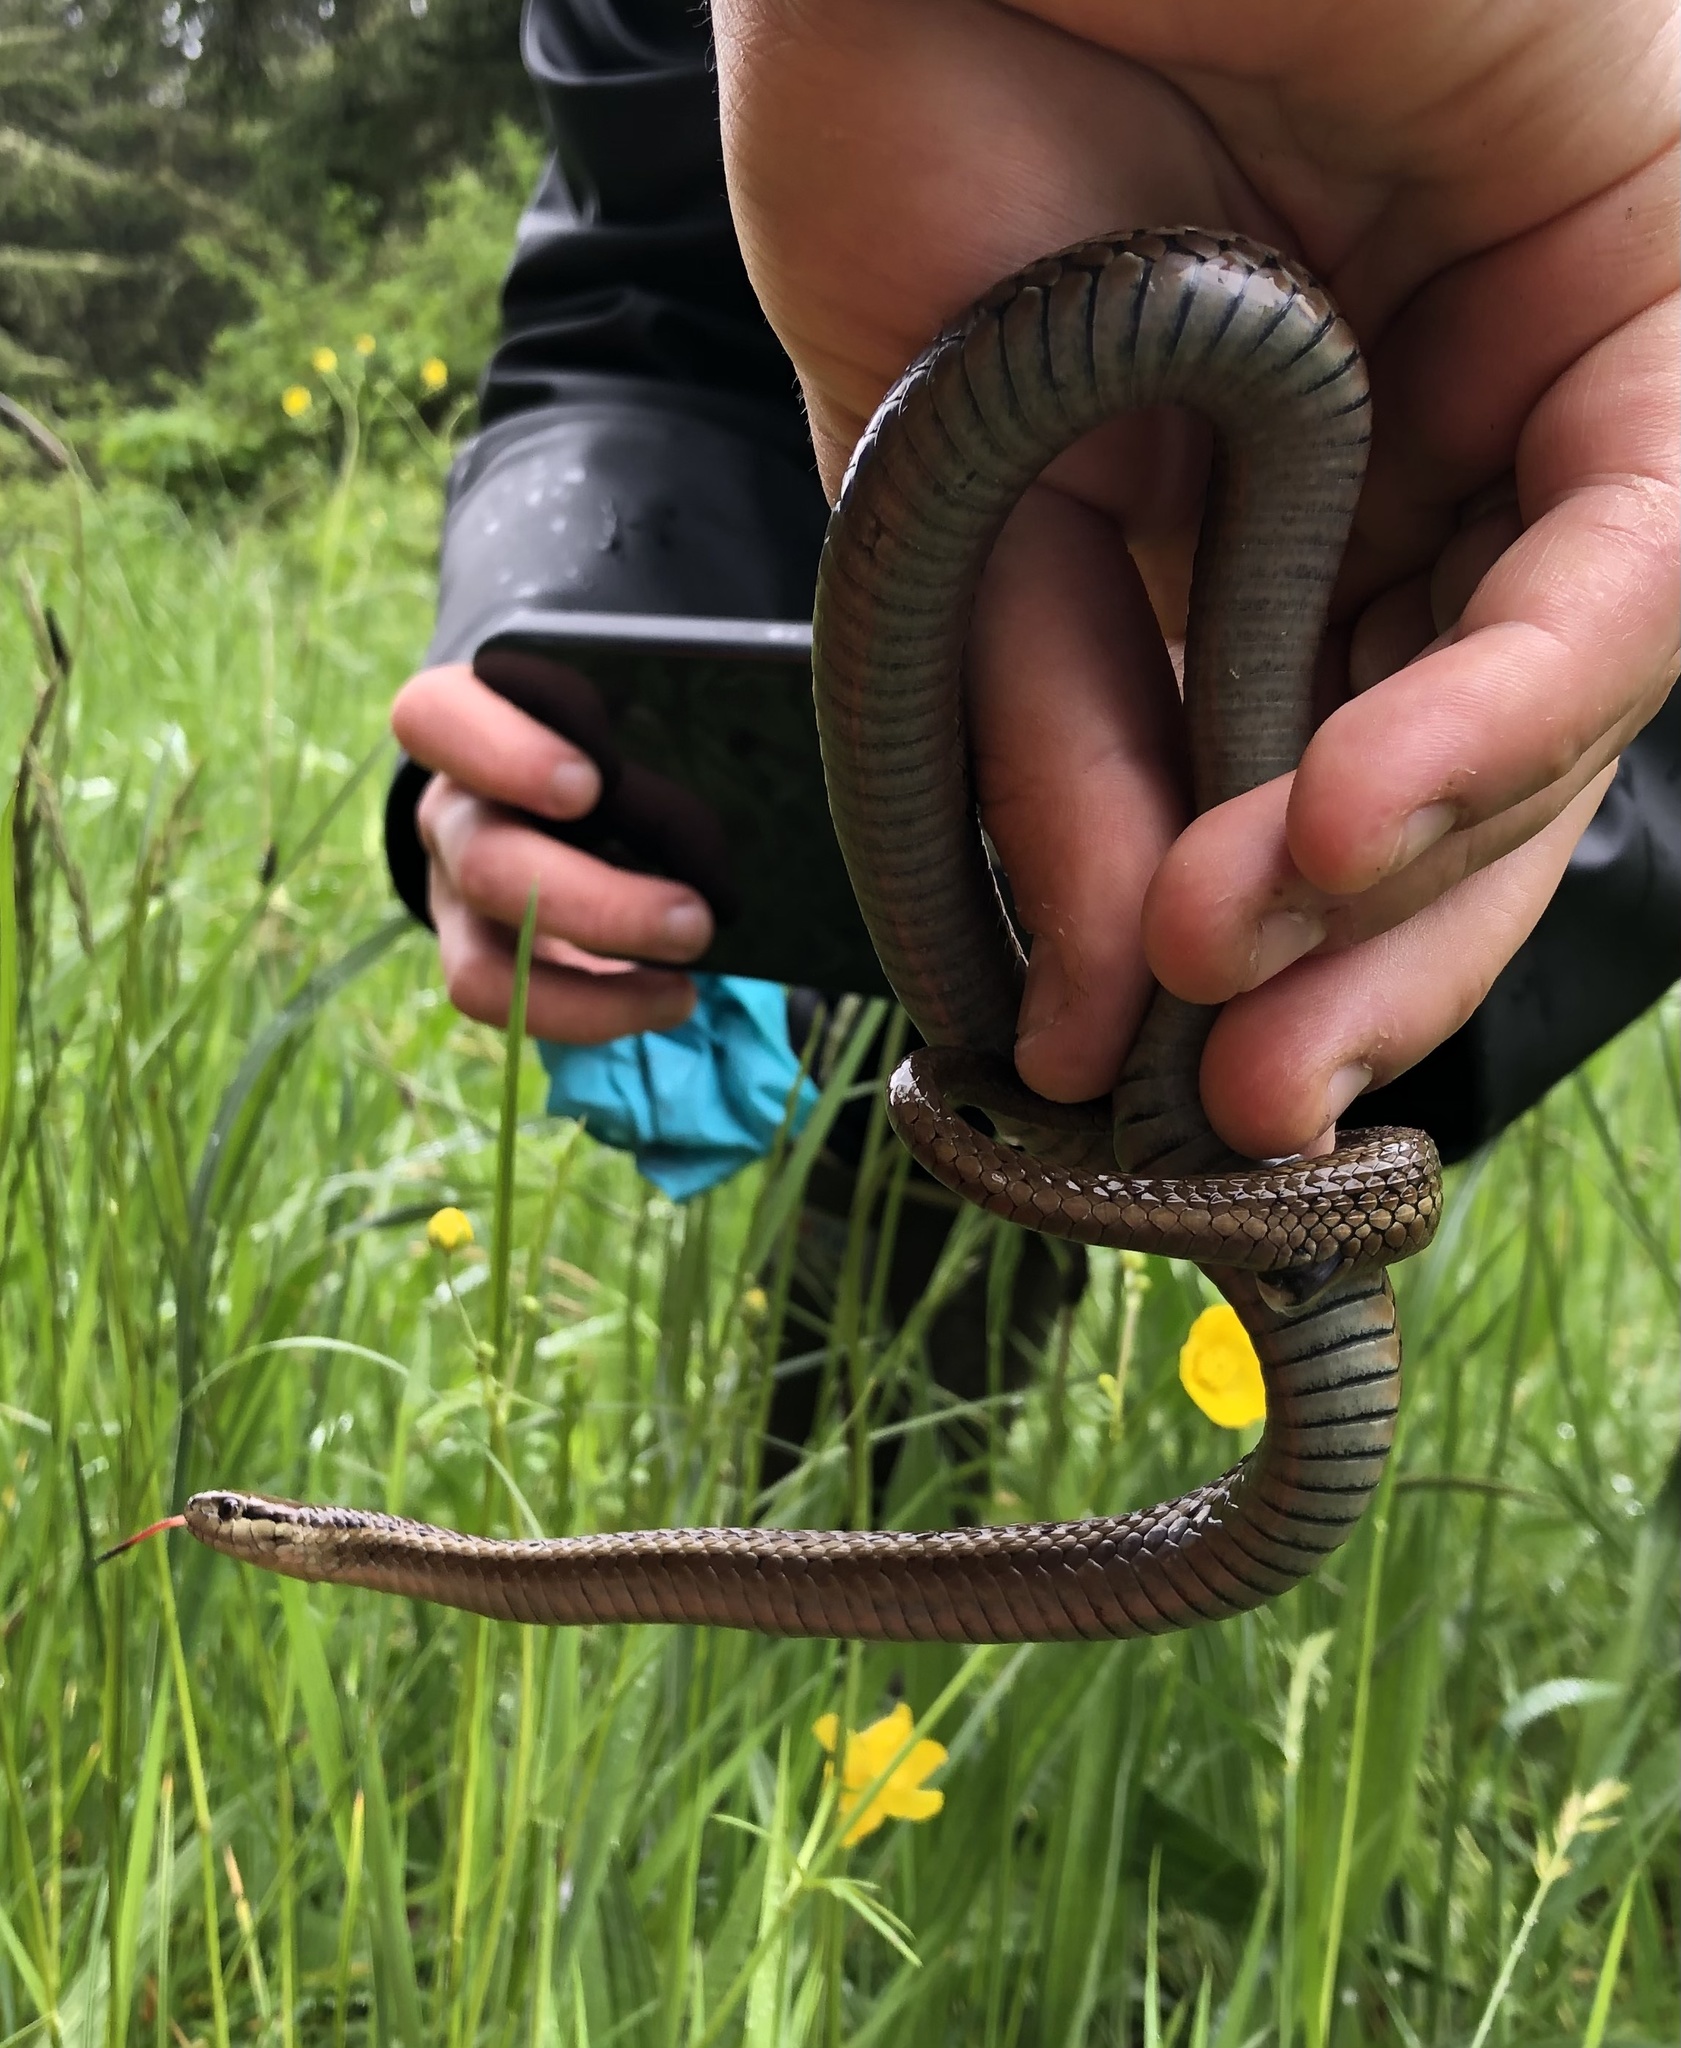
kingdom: Animalia
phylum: Chordata
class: Squamata
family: Colubridae
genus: Thamnophis
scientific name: Thamnophis ordinoides
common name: Northwestern garter snake
